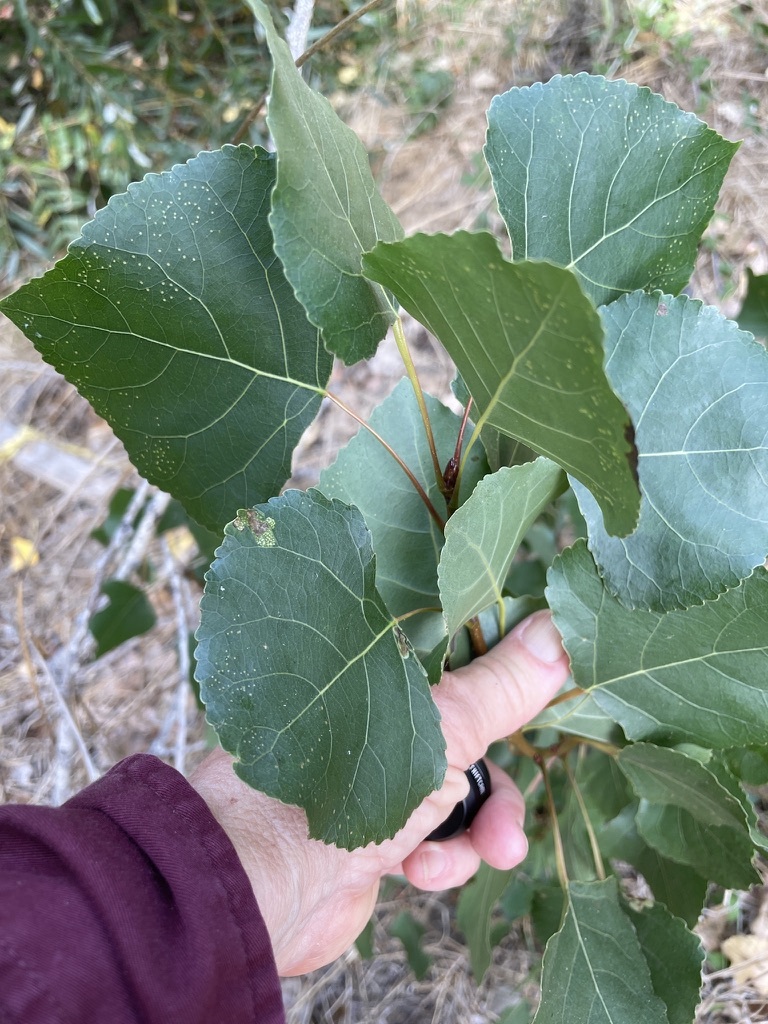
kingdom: Plantae
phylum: Tracheophyta
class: Magnoliopsida
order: Malpighiales
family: Salicaceae
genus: Populus
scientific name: Populus fremontii
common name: Fremont's cottonwood
